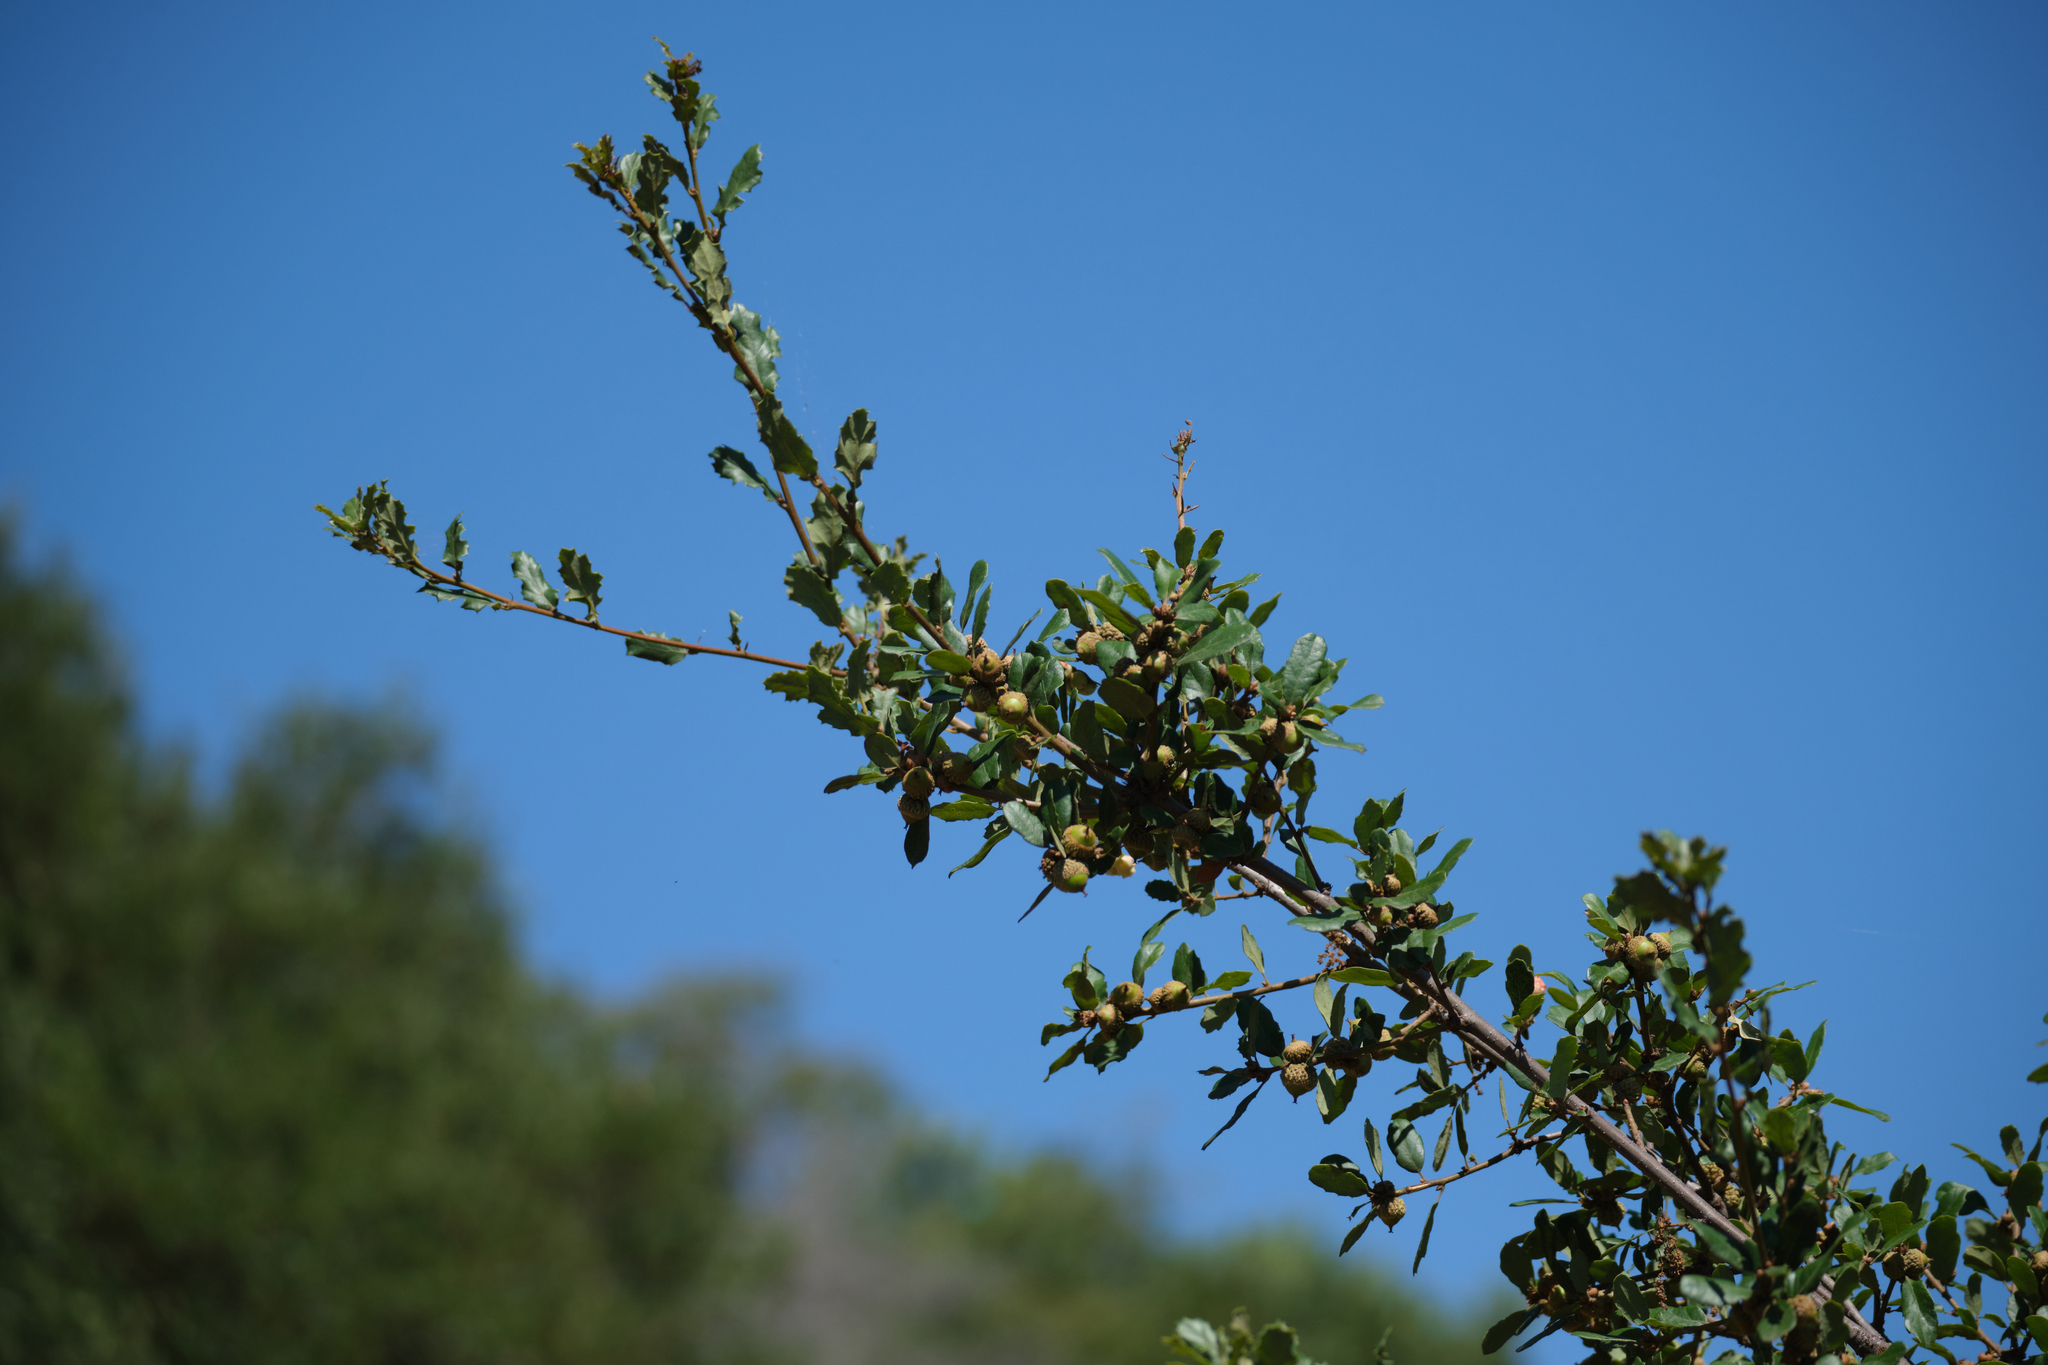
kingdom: Plantae
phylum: Tracheophyta
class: Magnoliopsida
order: Fagales
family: Fagaceae
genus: Quercus
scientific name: Quercus berberidifolia
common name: California scrub oak
